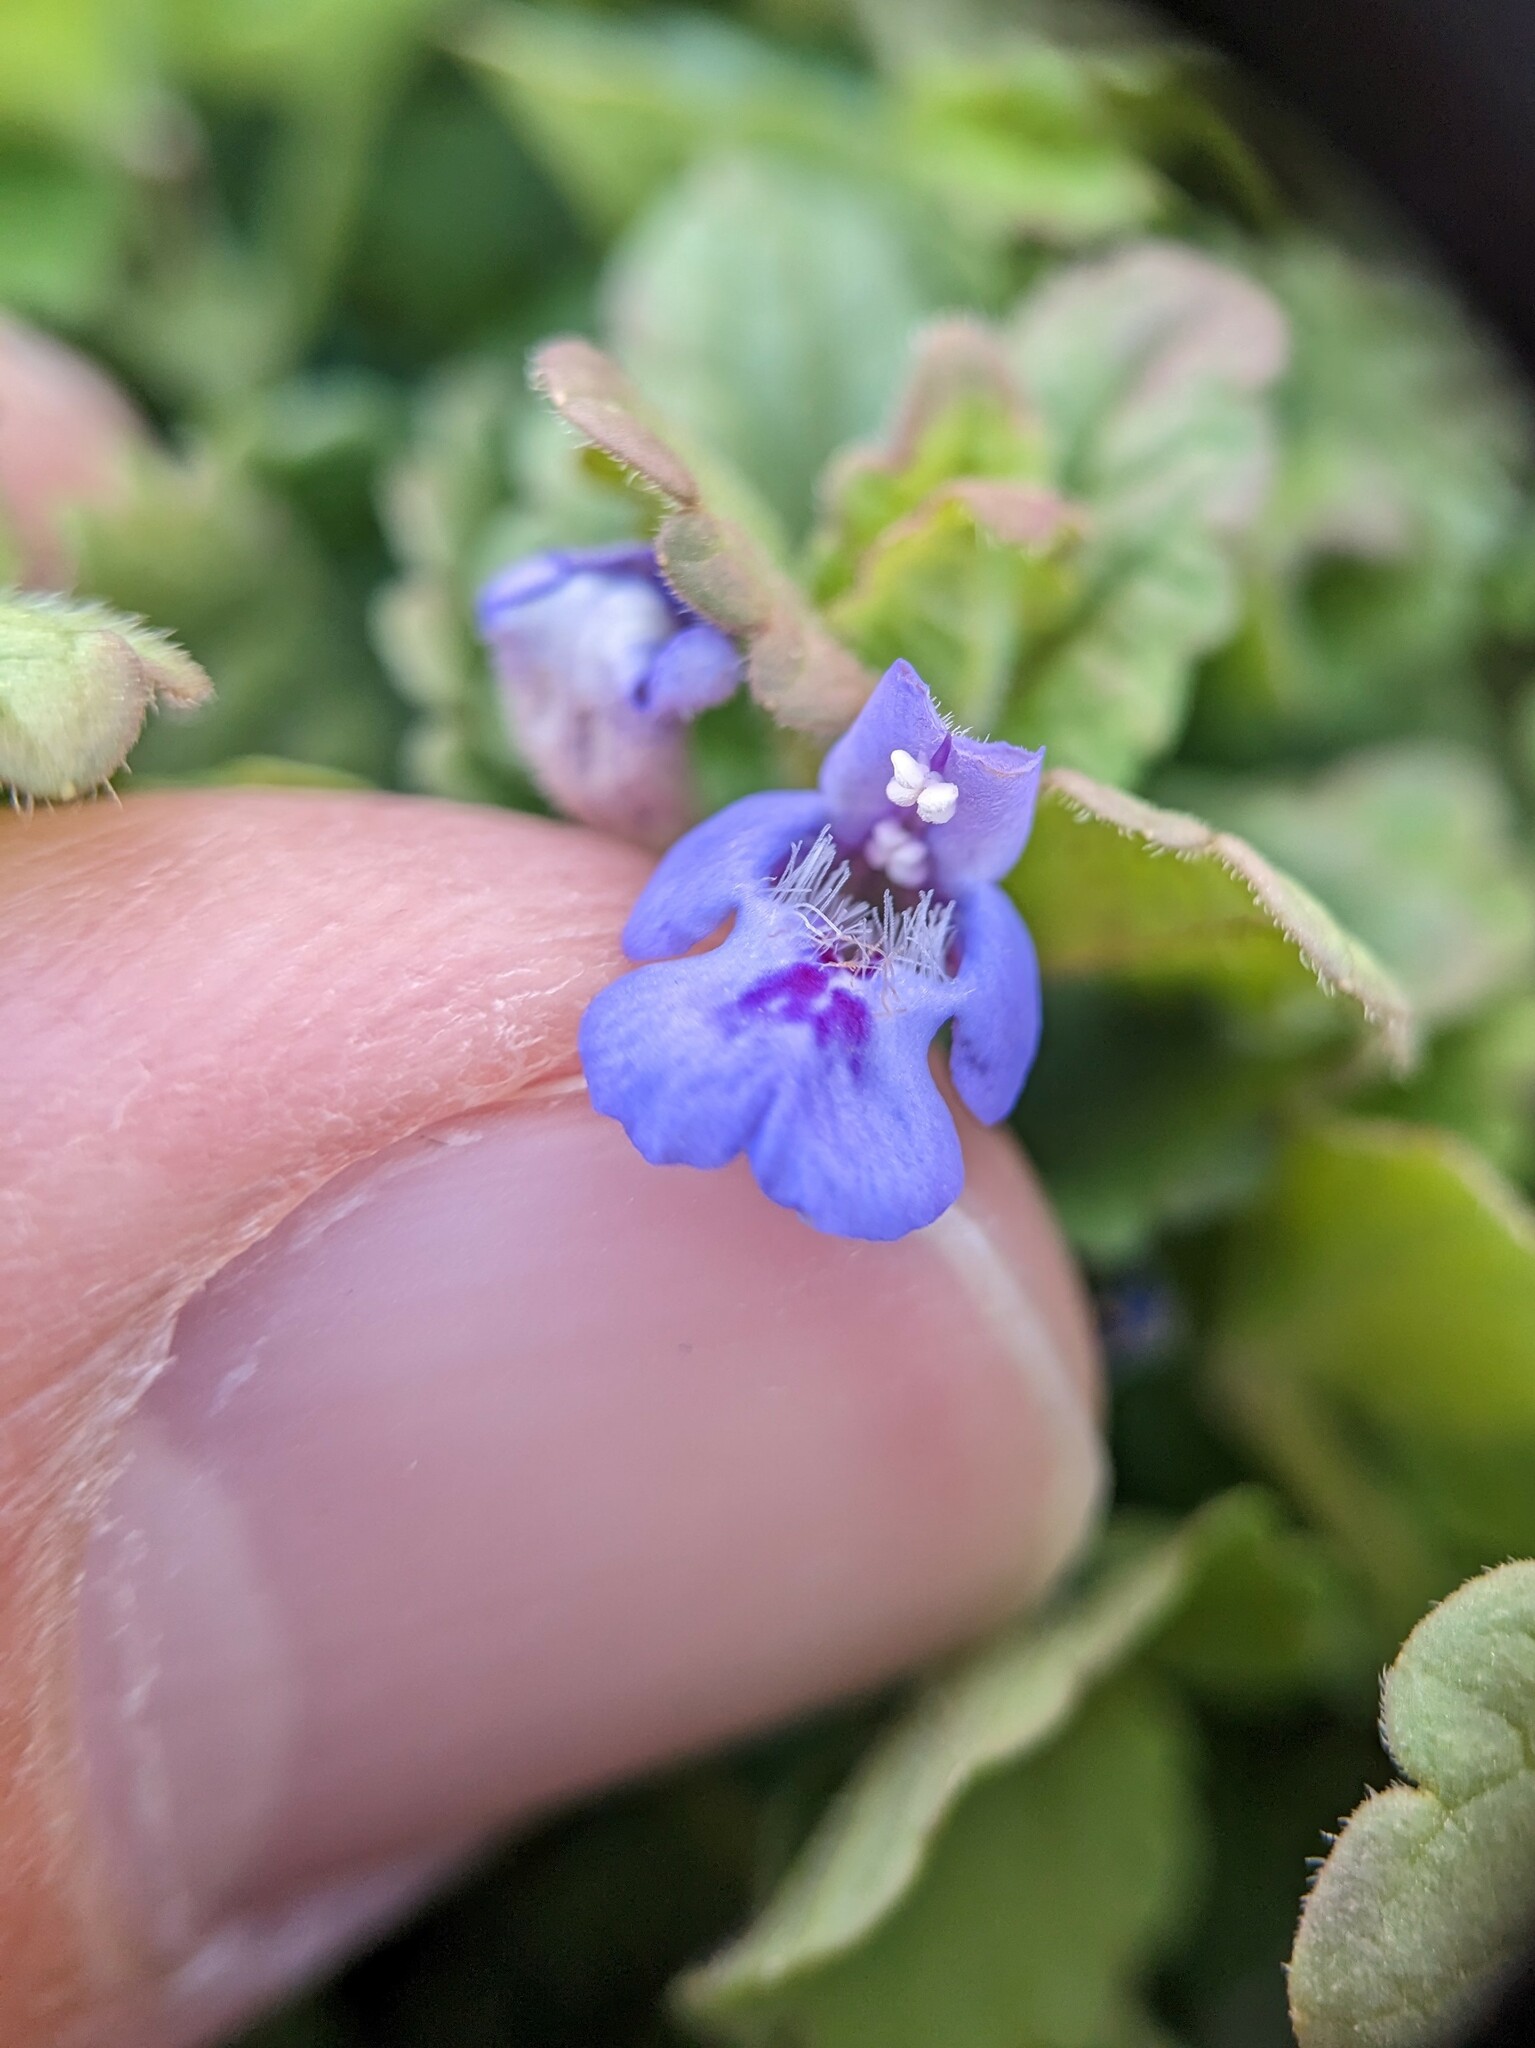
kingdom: Plantae
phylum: Tracheophyta
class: Magnoliopsida
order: Lamiales
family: Lamiaceae
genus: Glechoma
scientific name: Glechoma hederacea
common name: Ground ivy
